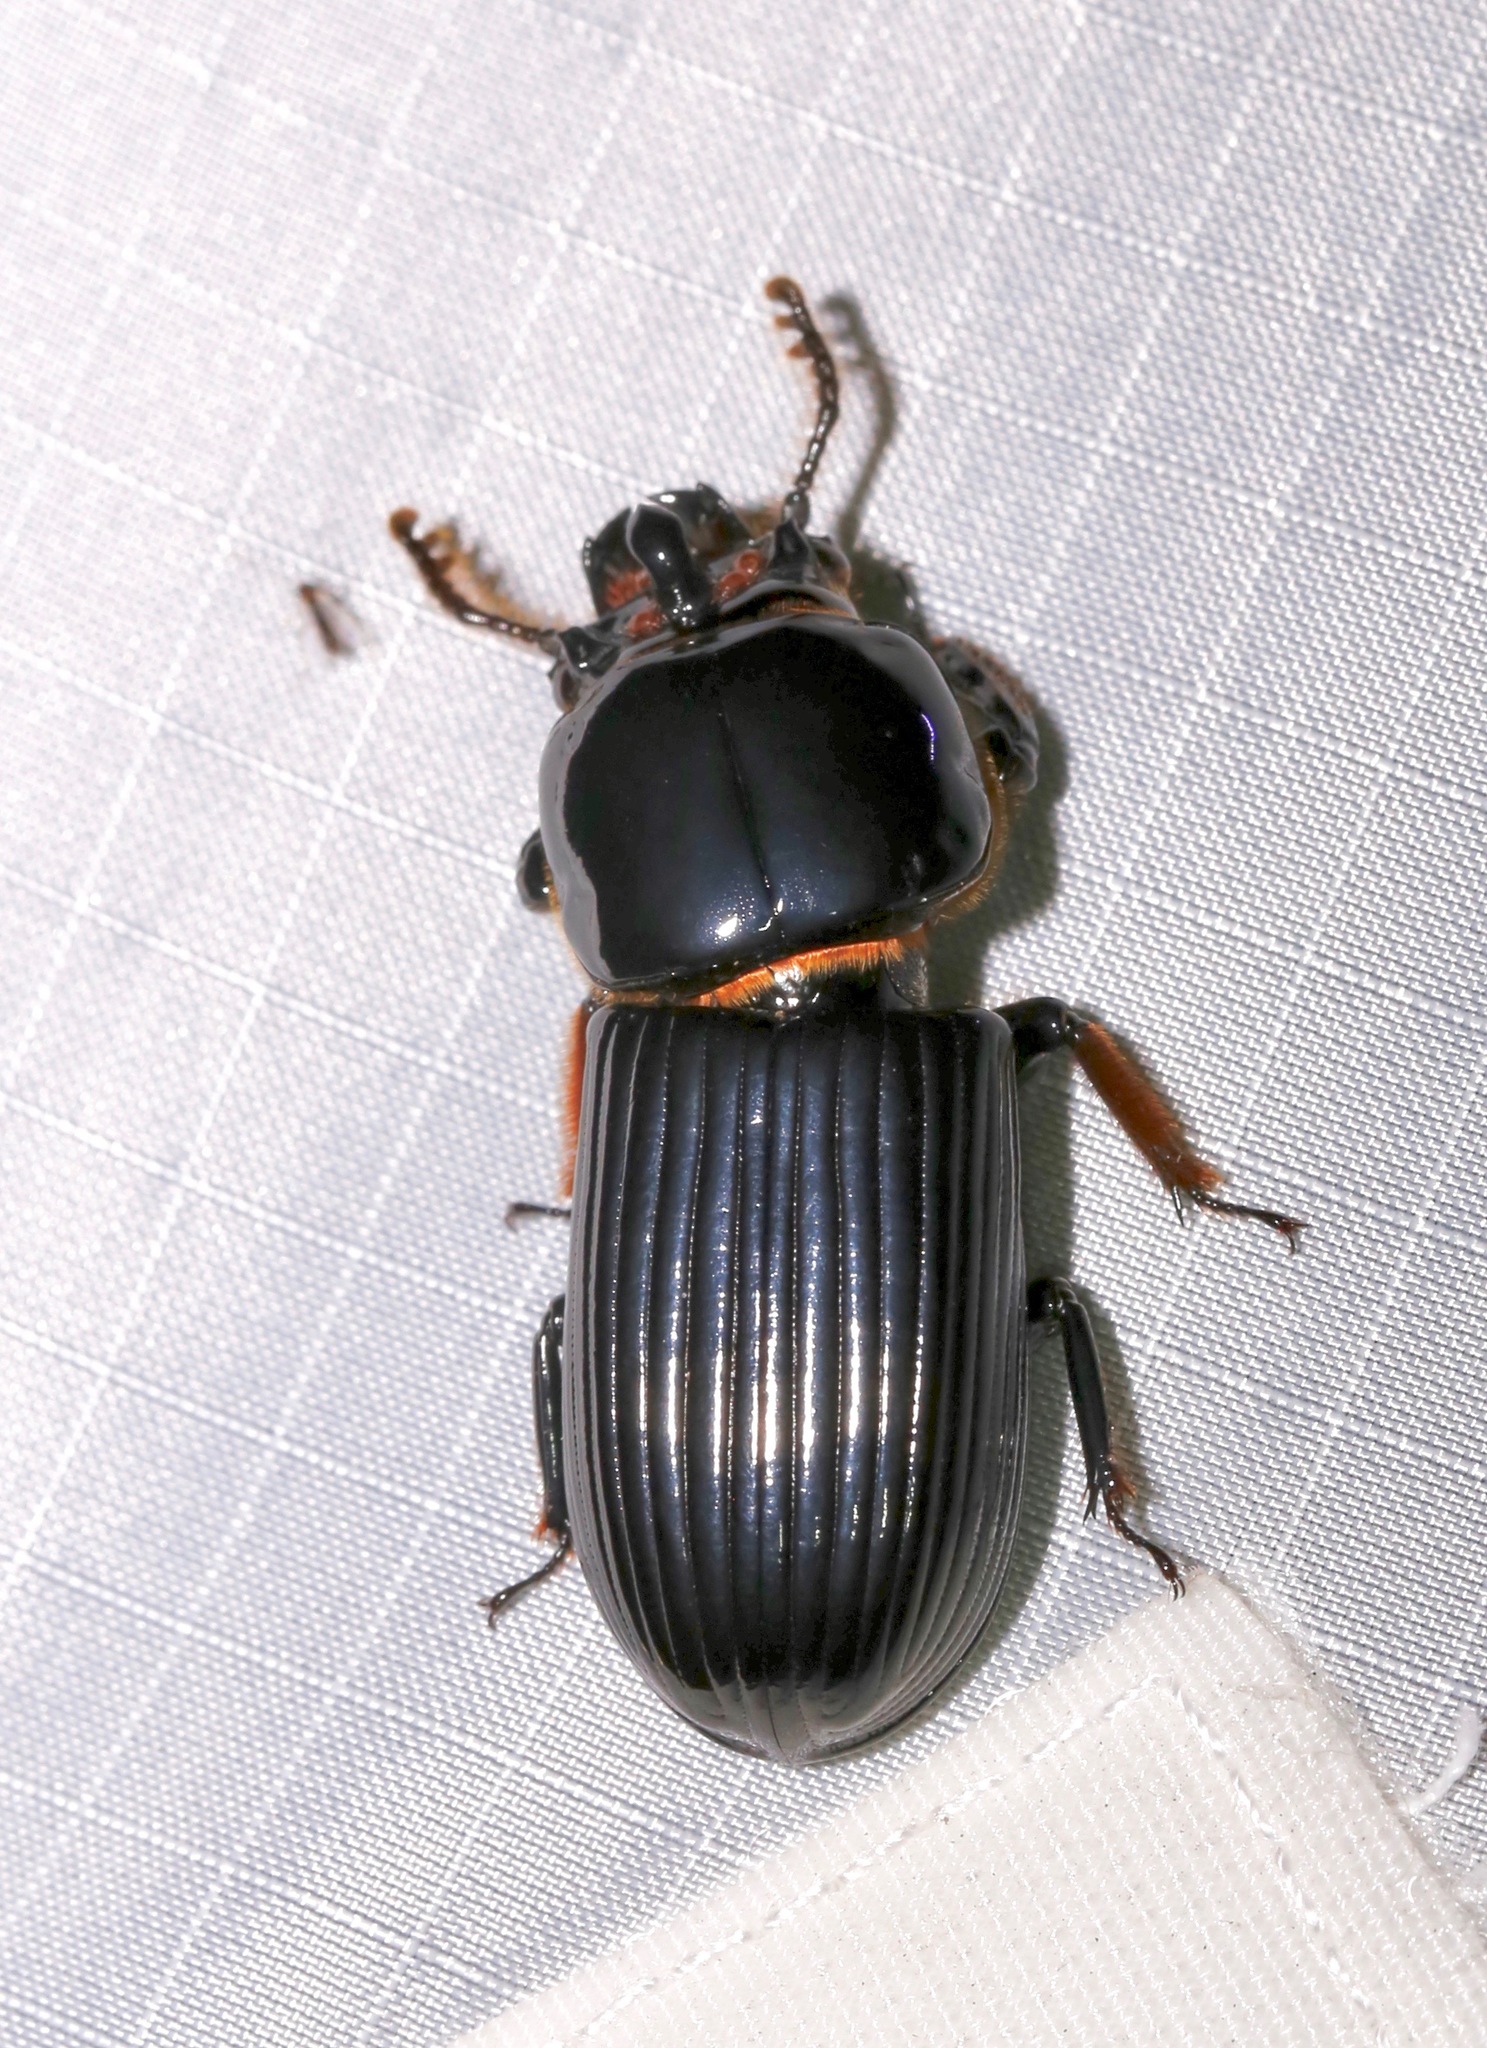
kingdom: Animalia
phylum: Arthropoda
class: Insecta
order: Coleoptera
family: Passalidae
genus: Odontotaenius
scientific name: Odontotaenius disjunctus
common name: Patent leather beetle
